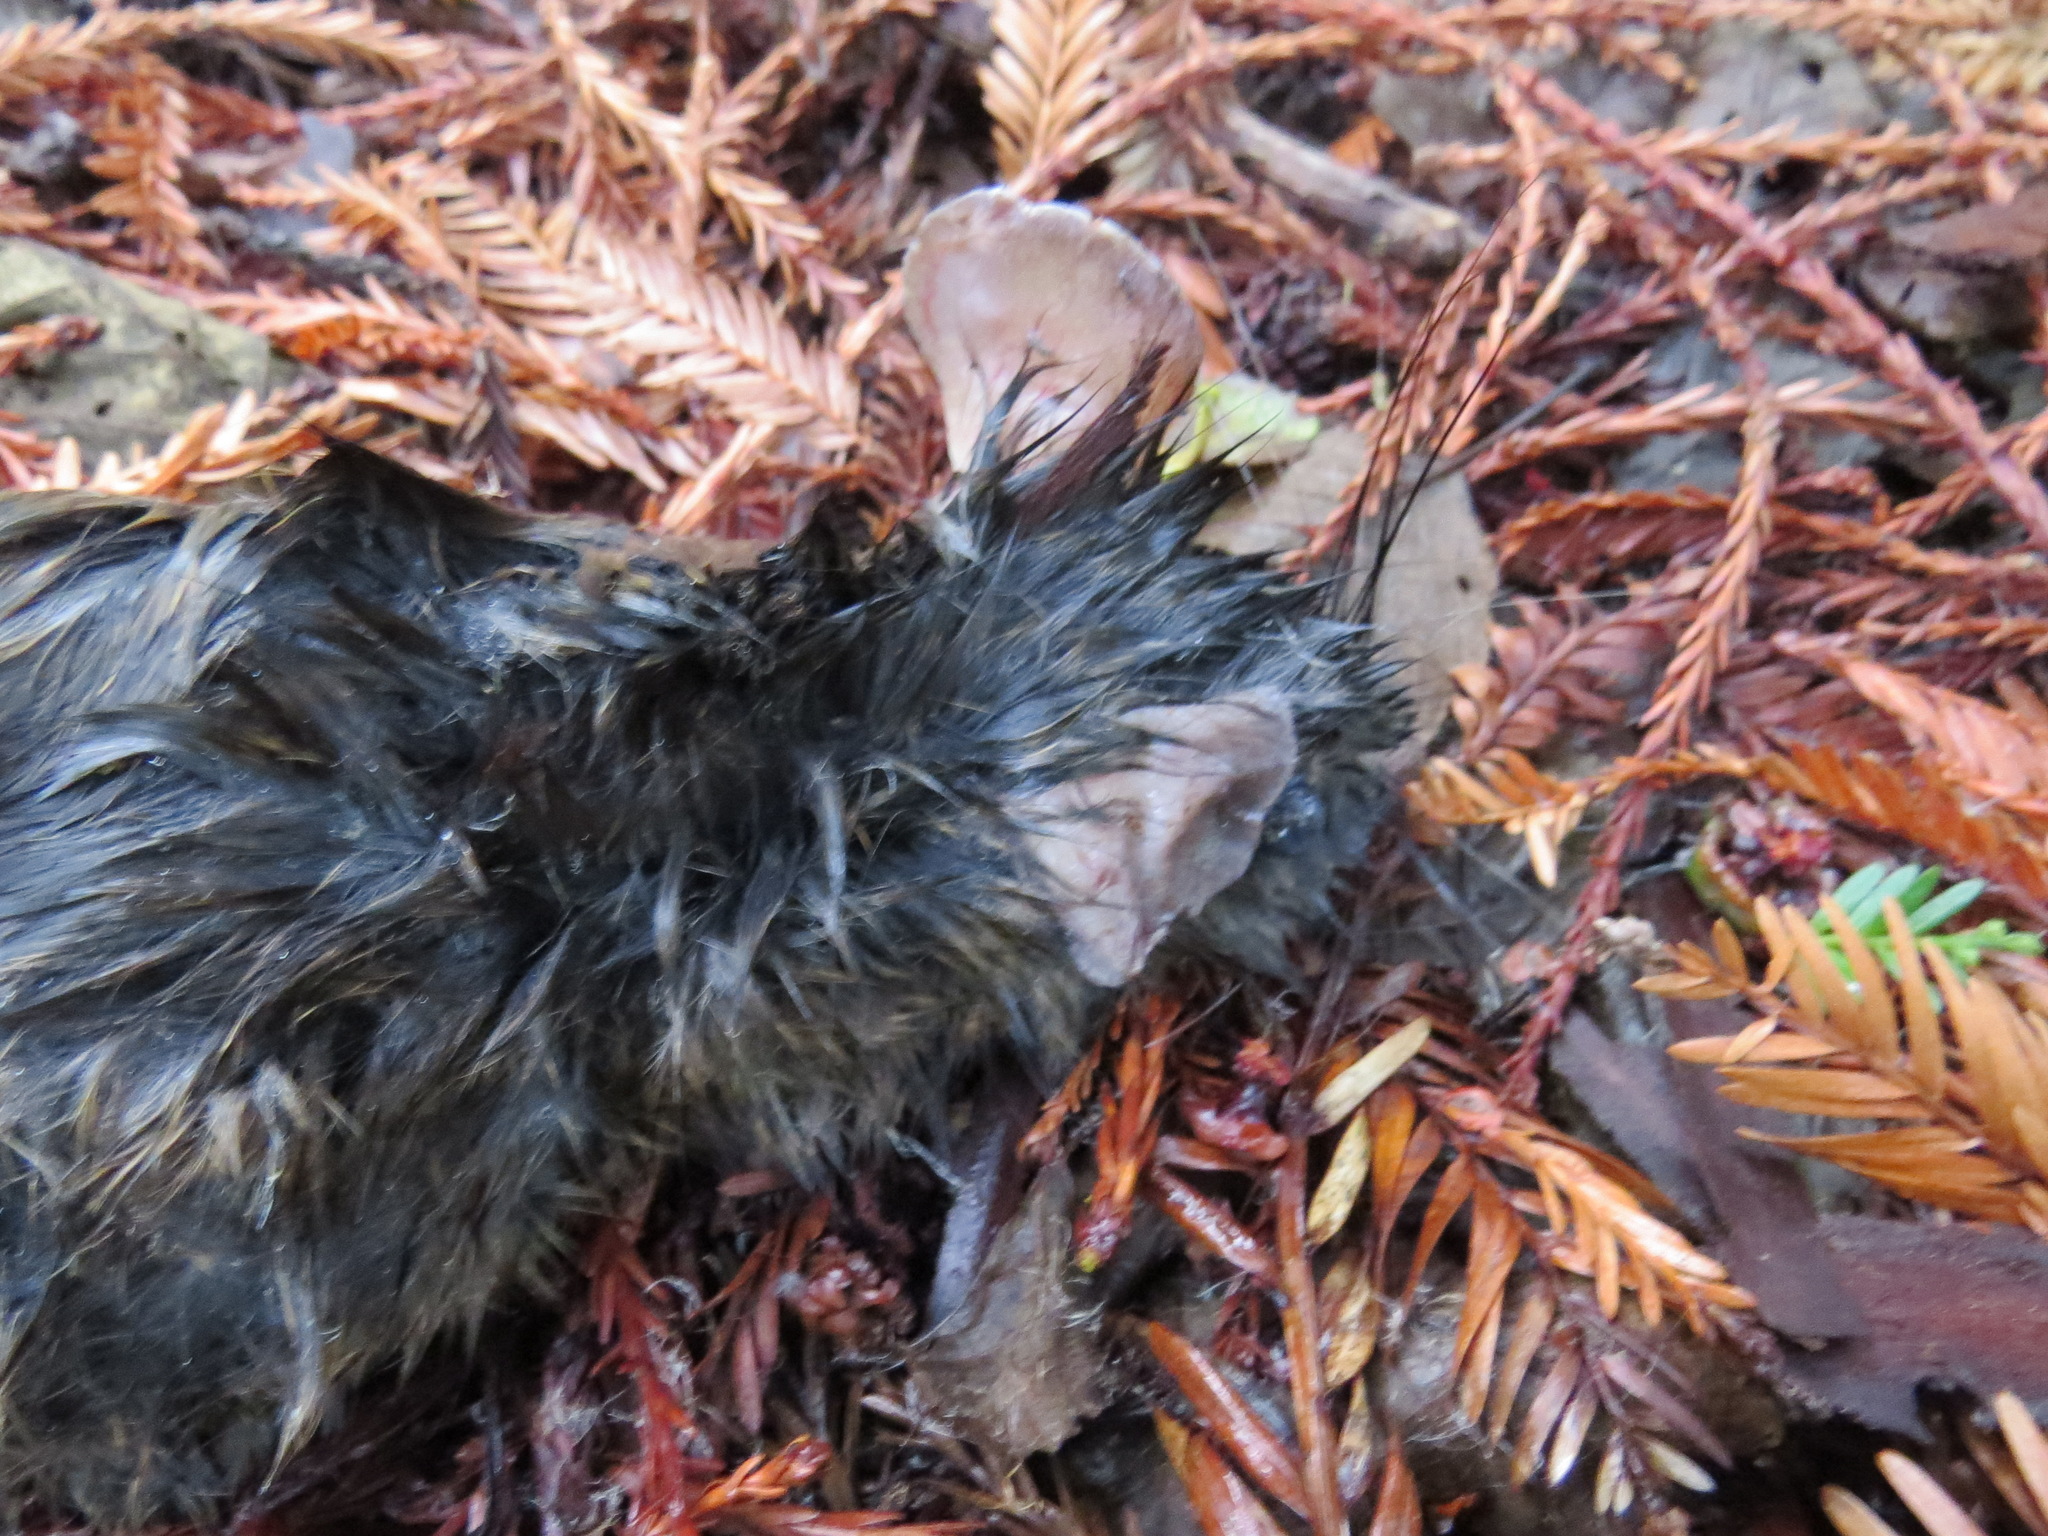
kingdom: Animalia
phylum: Chordata
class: Mammalia
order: Rodentia
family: Cricetidae
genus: Neotoma
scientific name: Neotoma fuscipes
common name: Dusky-footed woodrat
